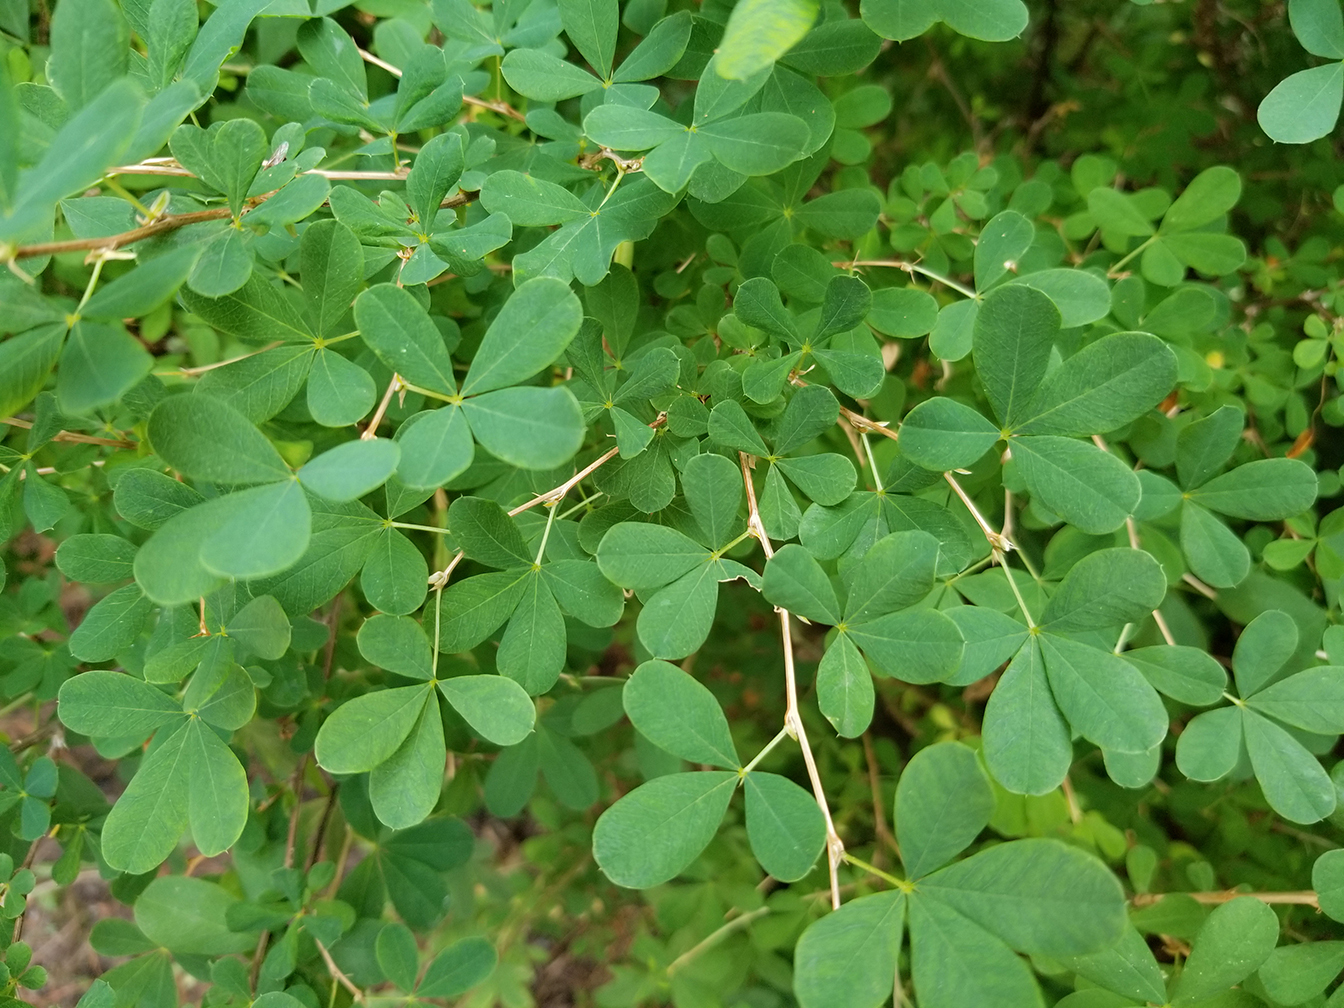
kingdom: Plantae
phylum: Tracheophyta
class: Magnoliopsida
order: Fabales
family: Fabaceae
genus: Caragana
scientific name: Caragana frutex
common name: Russian peashrub
